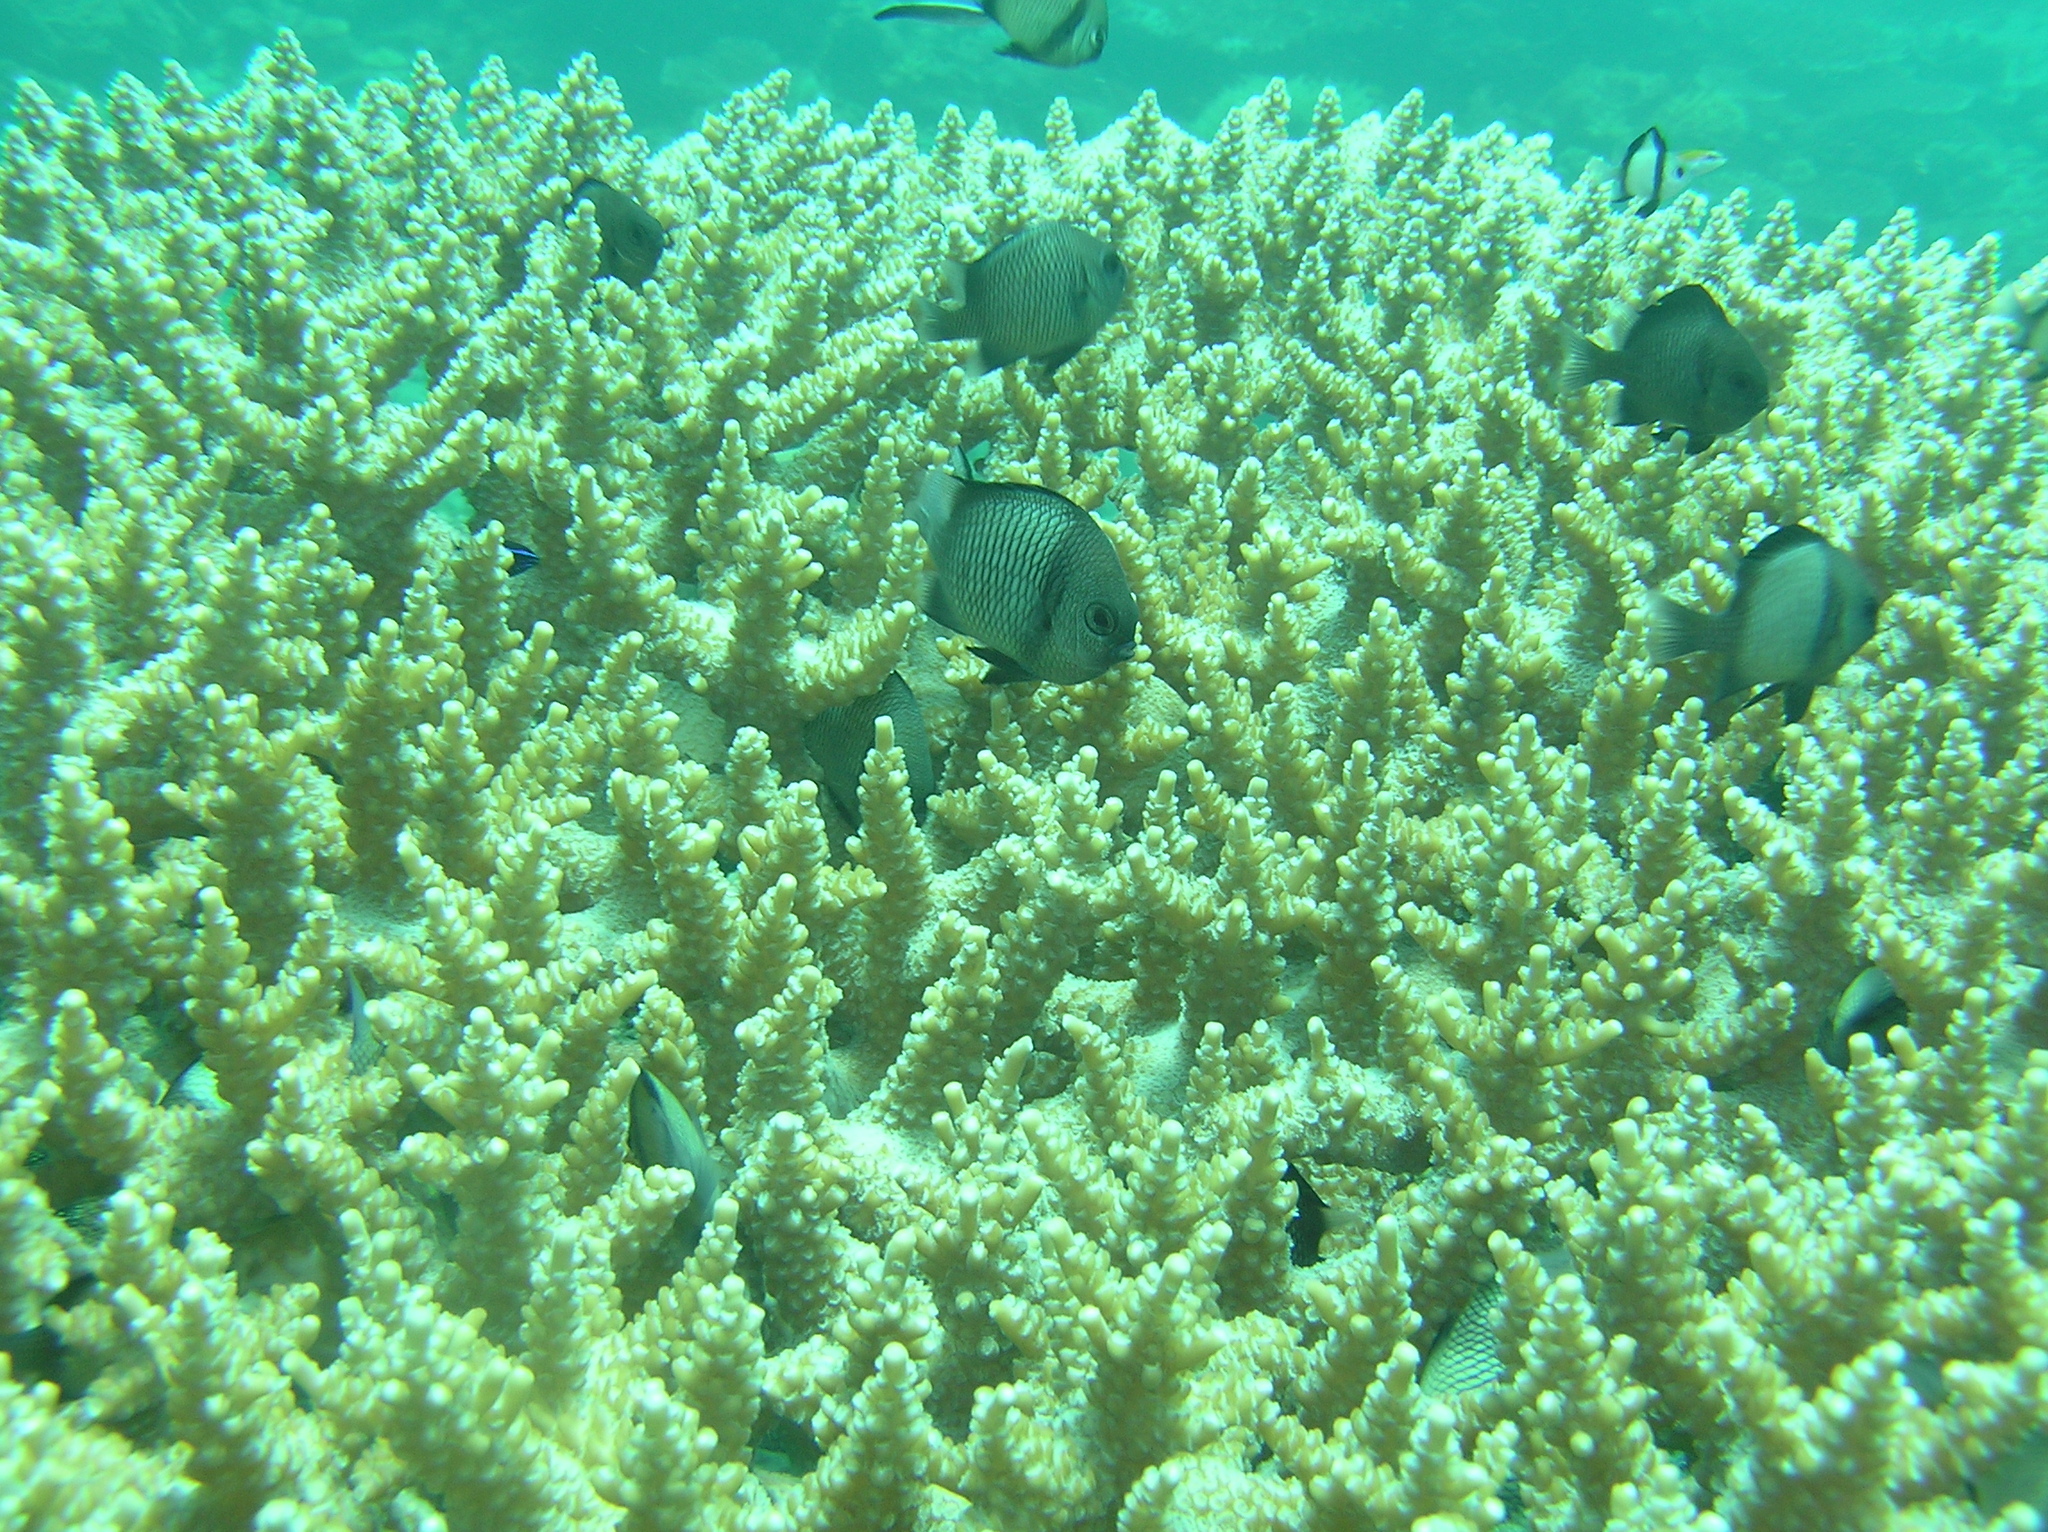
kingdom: Animalia
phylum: Chordata
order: Perciformes
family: Pomacentridae
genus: Dascyllus
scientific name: Dascyllus reticulatus
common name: Reticulated dascyllus
